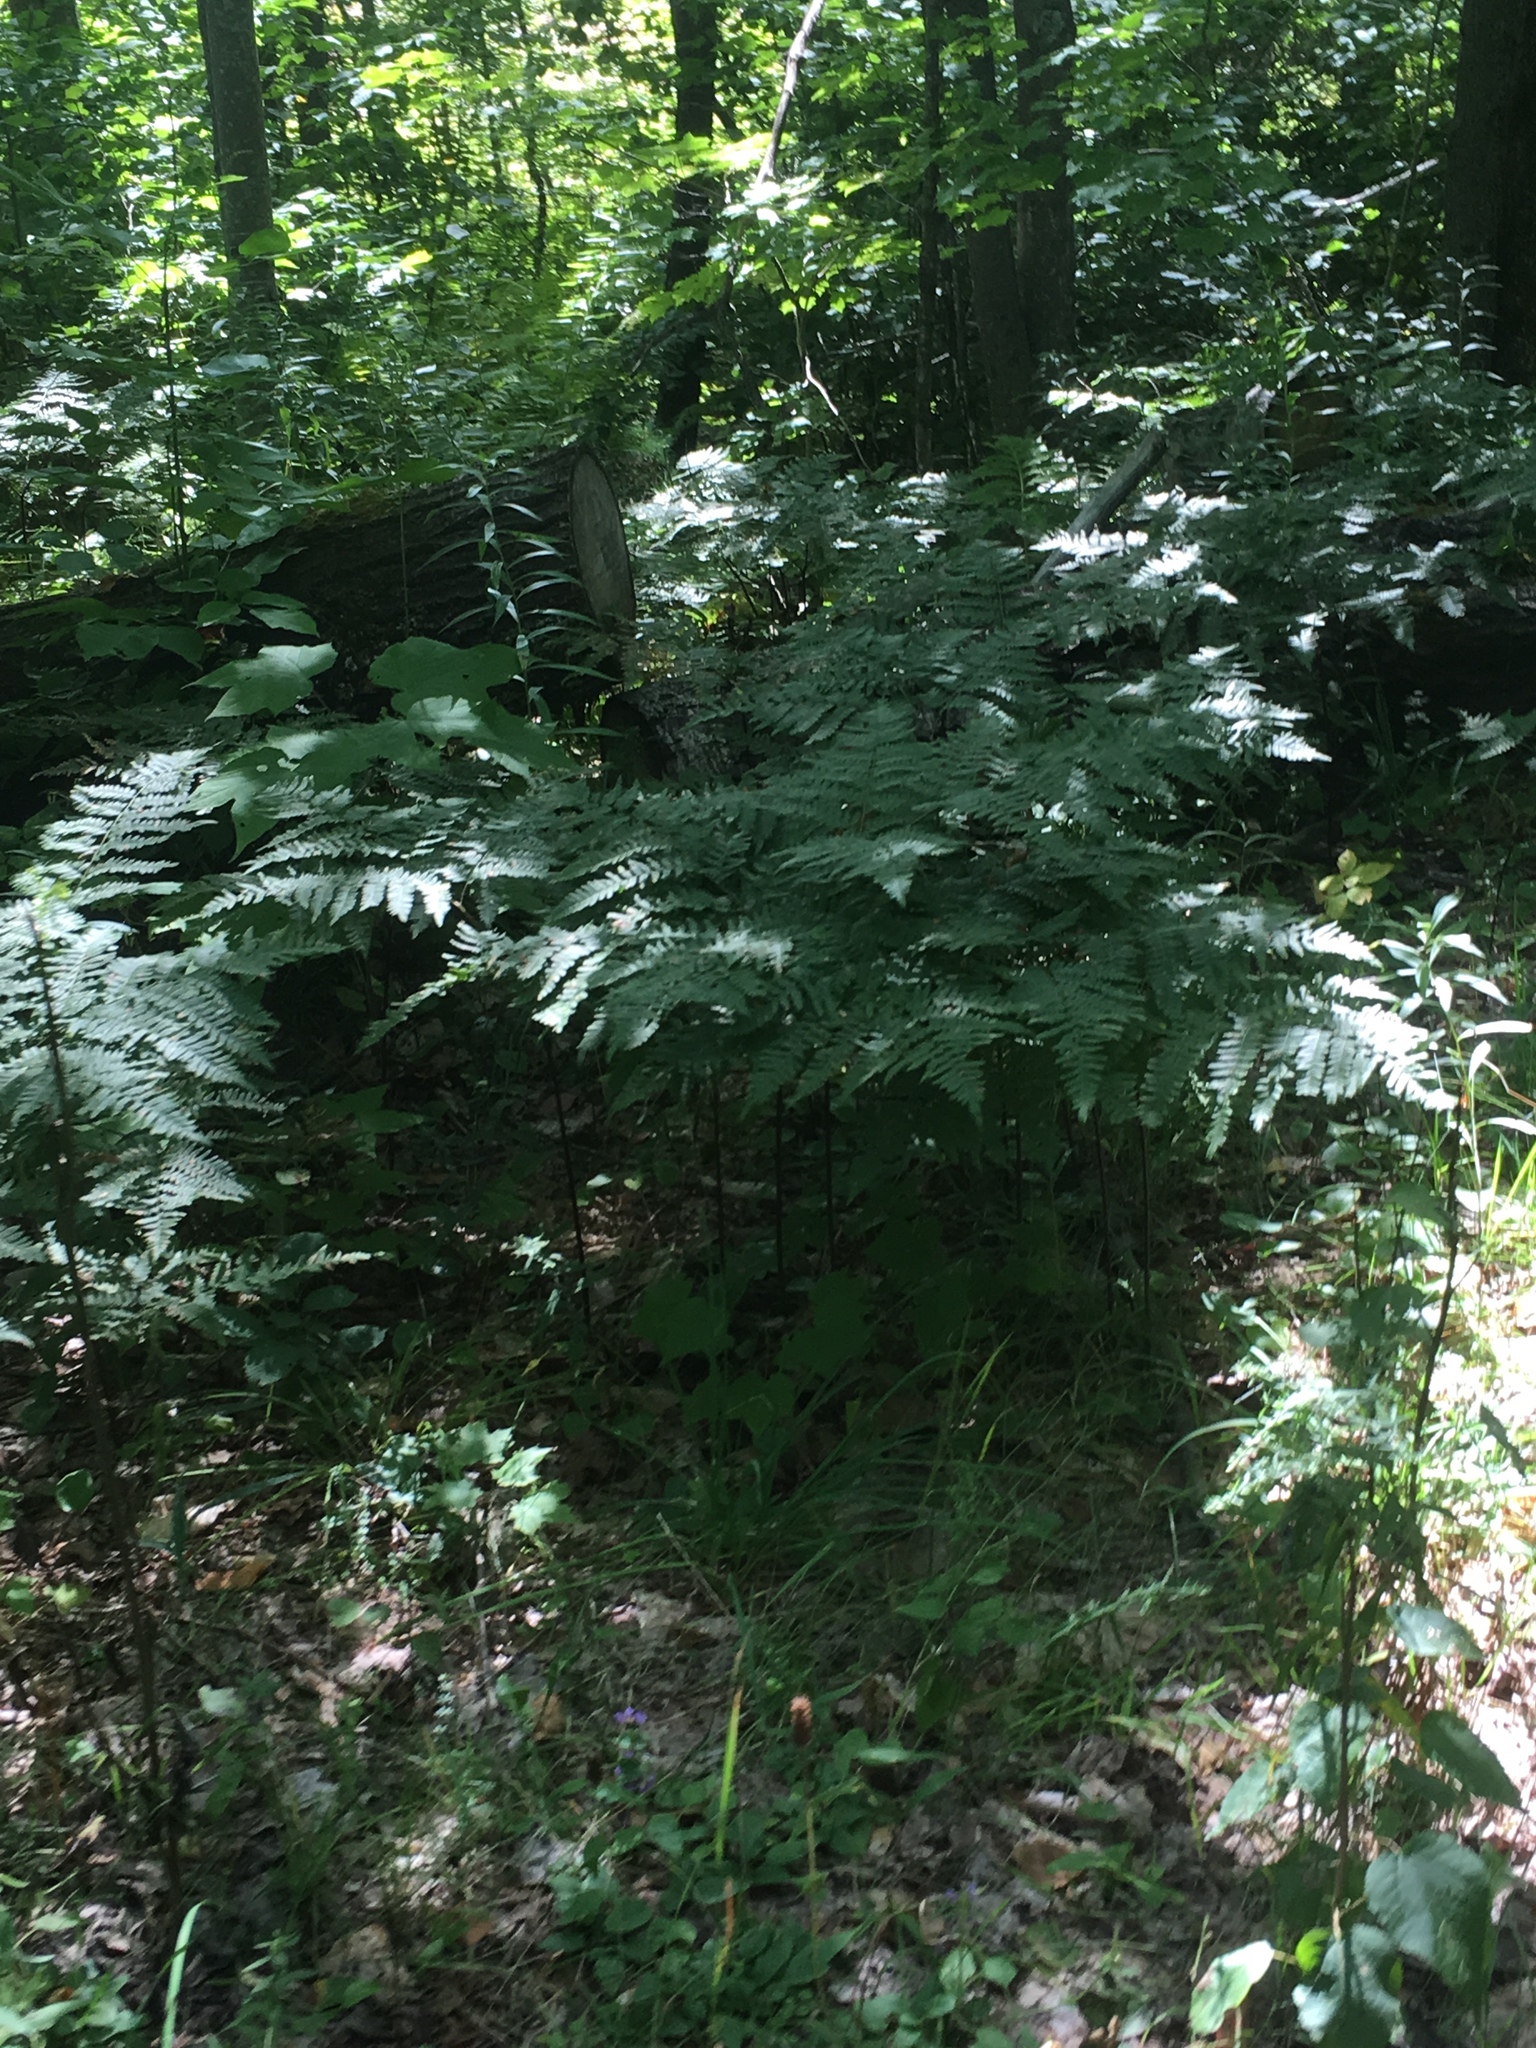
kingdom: Plantae
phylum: Tracheophyta
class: Polypodiopsida
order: Polypodiales
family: Dennstaedtiaceae
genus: Pteridium
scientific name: Pteridium aquilinum
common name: Bracken
